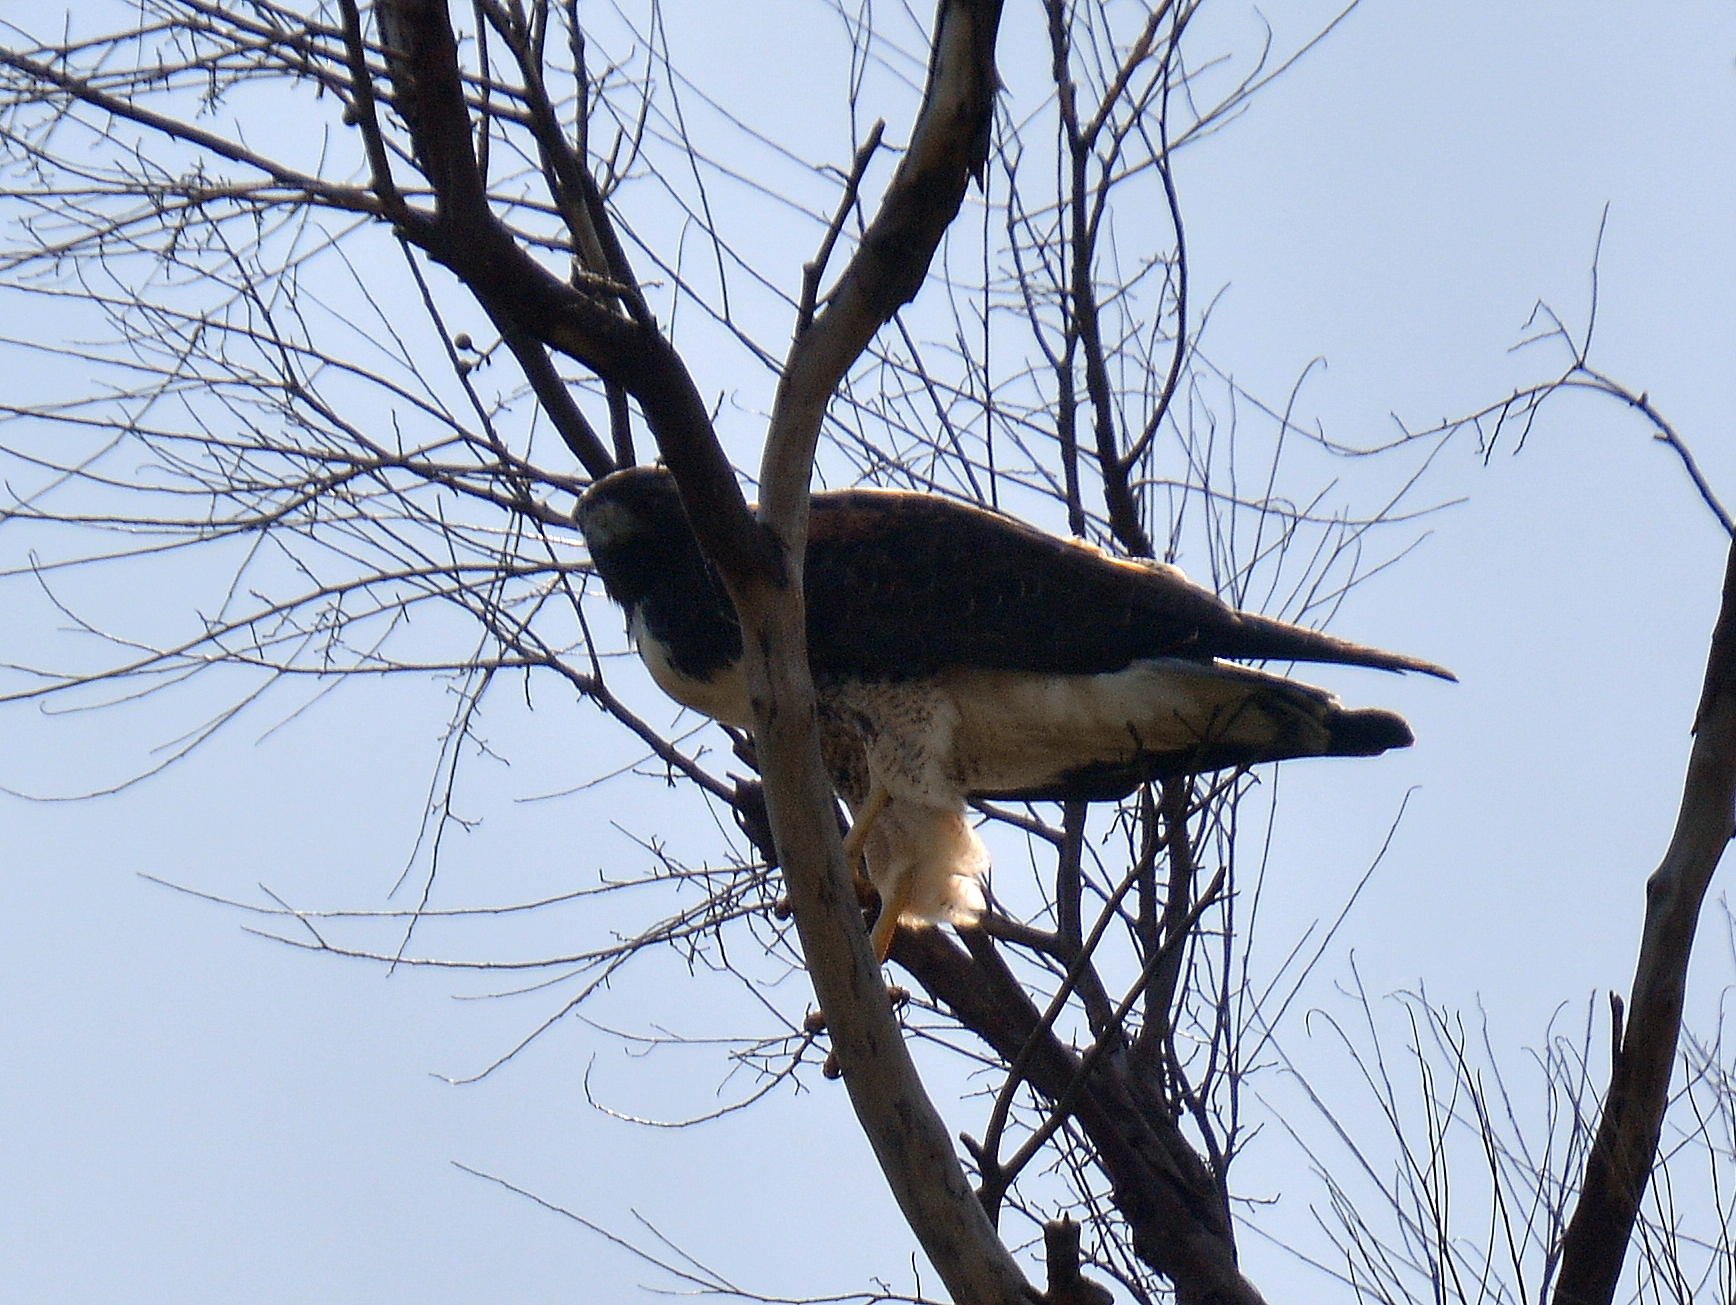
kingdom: Animalia
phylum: Chordata
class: Aves
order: Accipitriformes
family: Accipitridae
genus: Buteo
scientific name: Buteo albicaudatus
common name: White-tailed hawk
